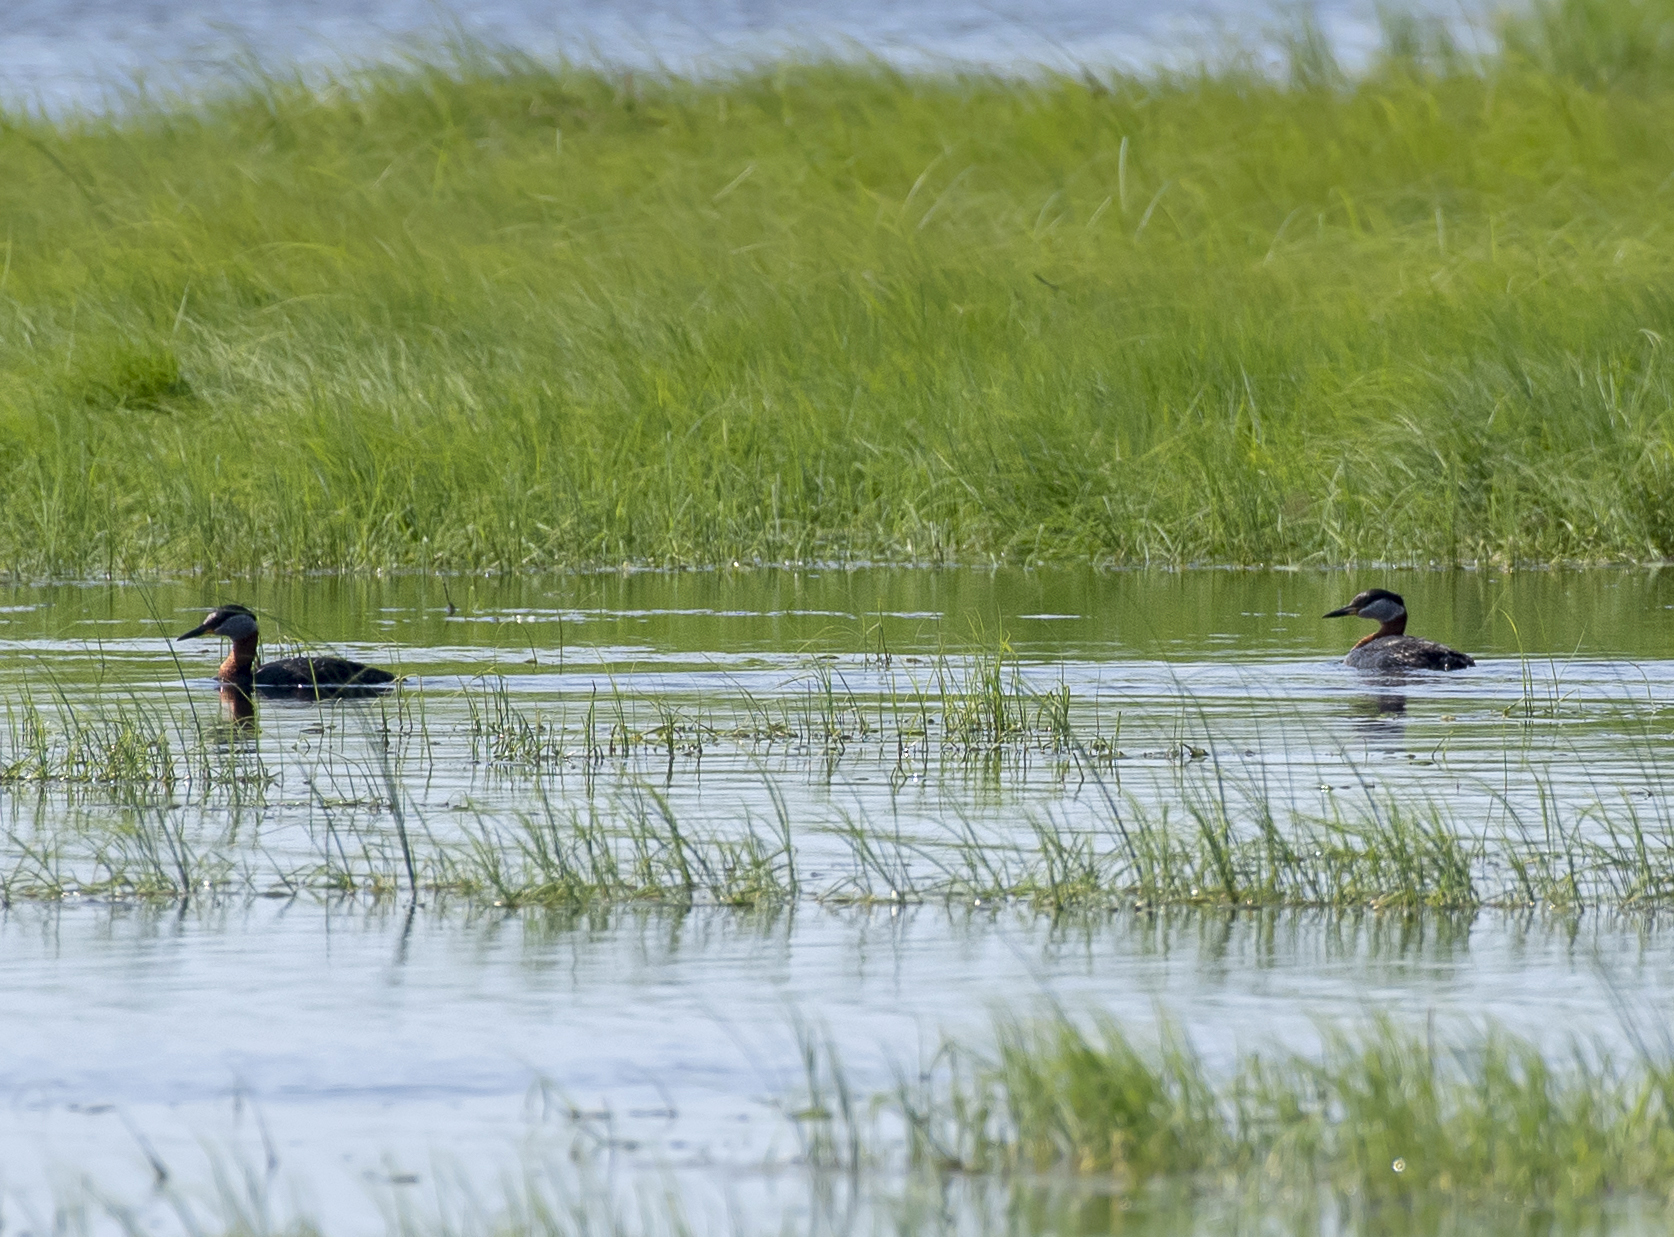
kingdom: Animalia
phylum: Chordata
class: Aves
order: Podicipediformes
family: Podicipedidae
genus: Podiceps
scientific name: Podiceps grisegena
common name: Red-necked grebe
